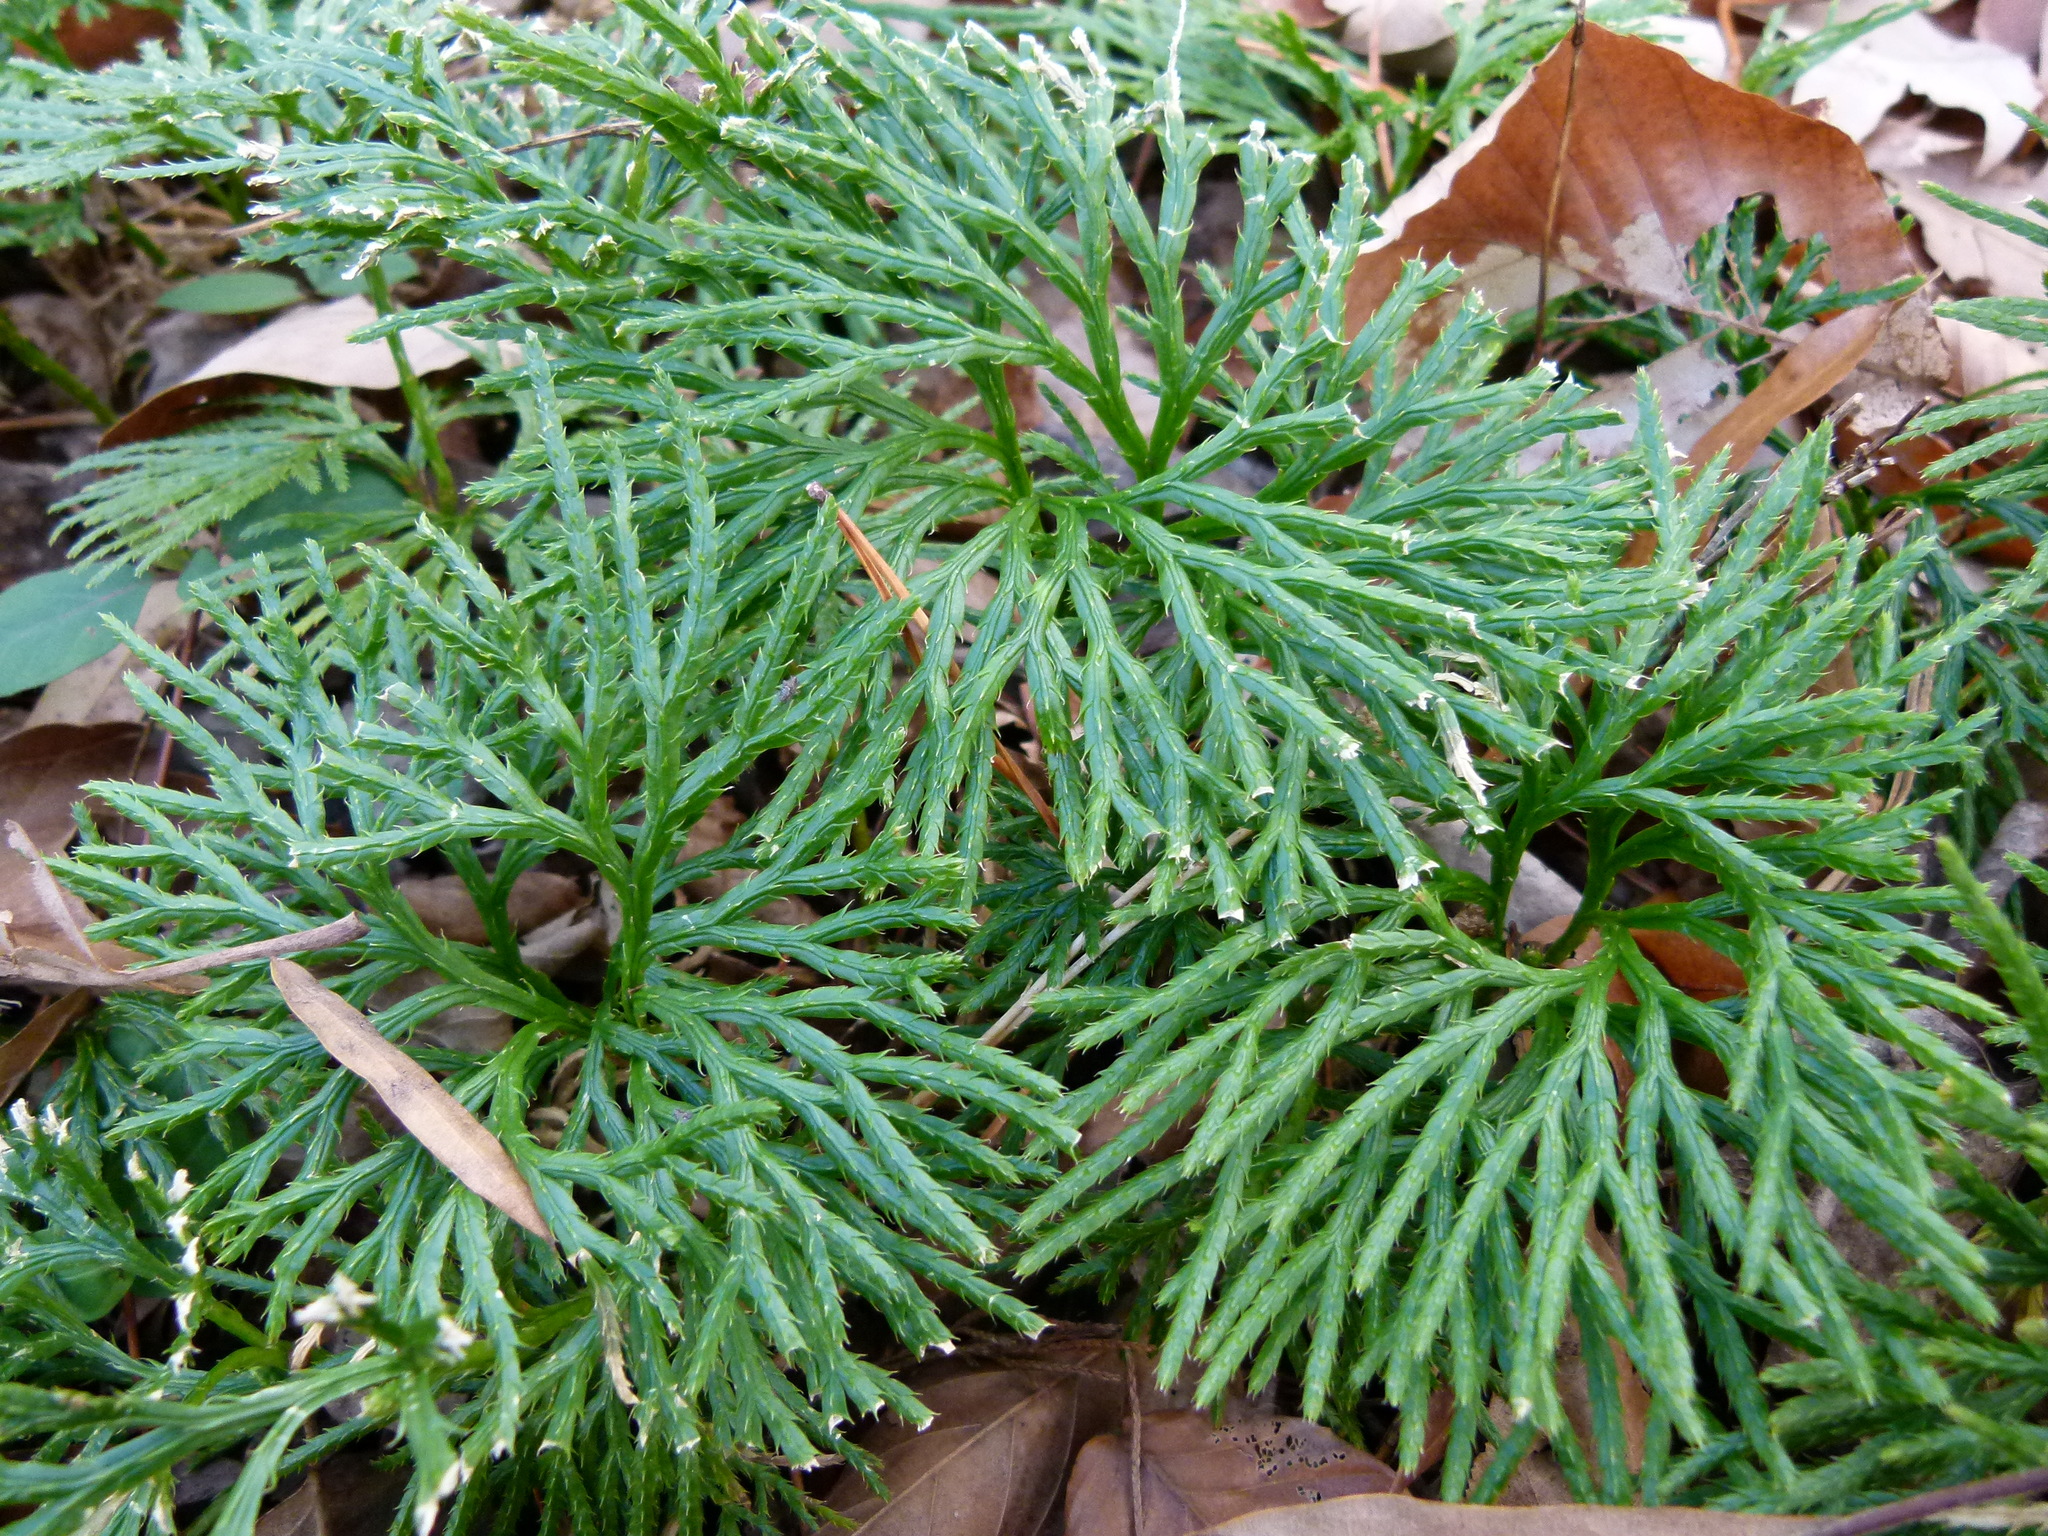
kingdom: Plantae
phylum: Tracheophyta
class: Lycopodiopsida
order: Lycopodiales
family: Lycopodiaceae
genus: Diphasiastrum
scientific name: Diphasiastrum digitatum
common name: Southern running-pine
